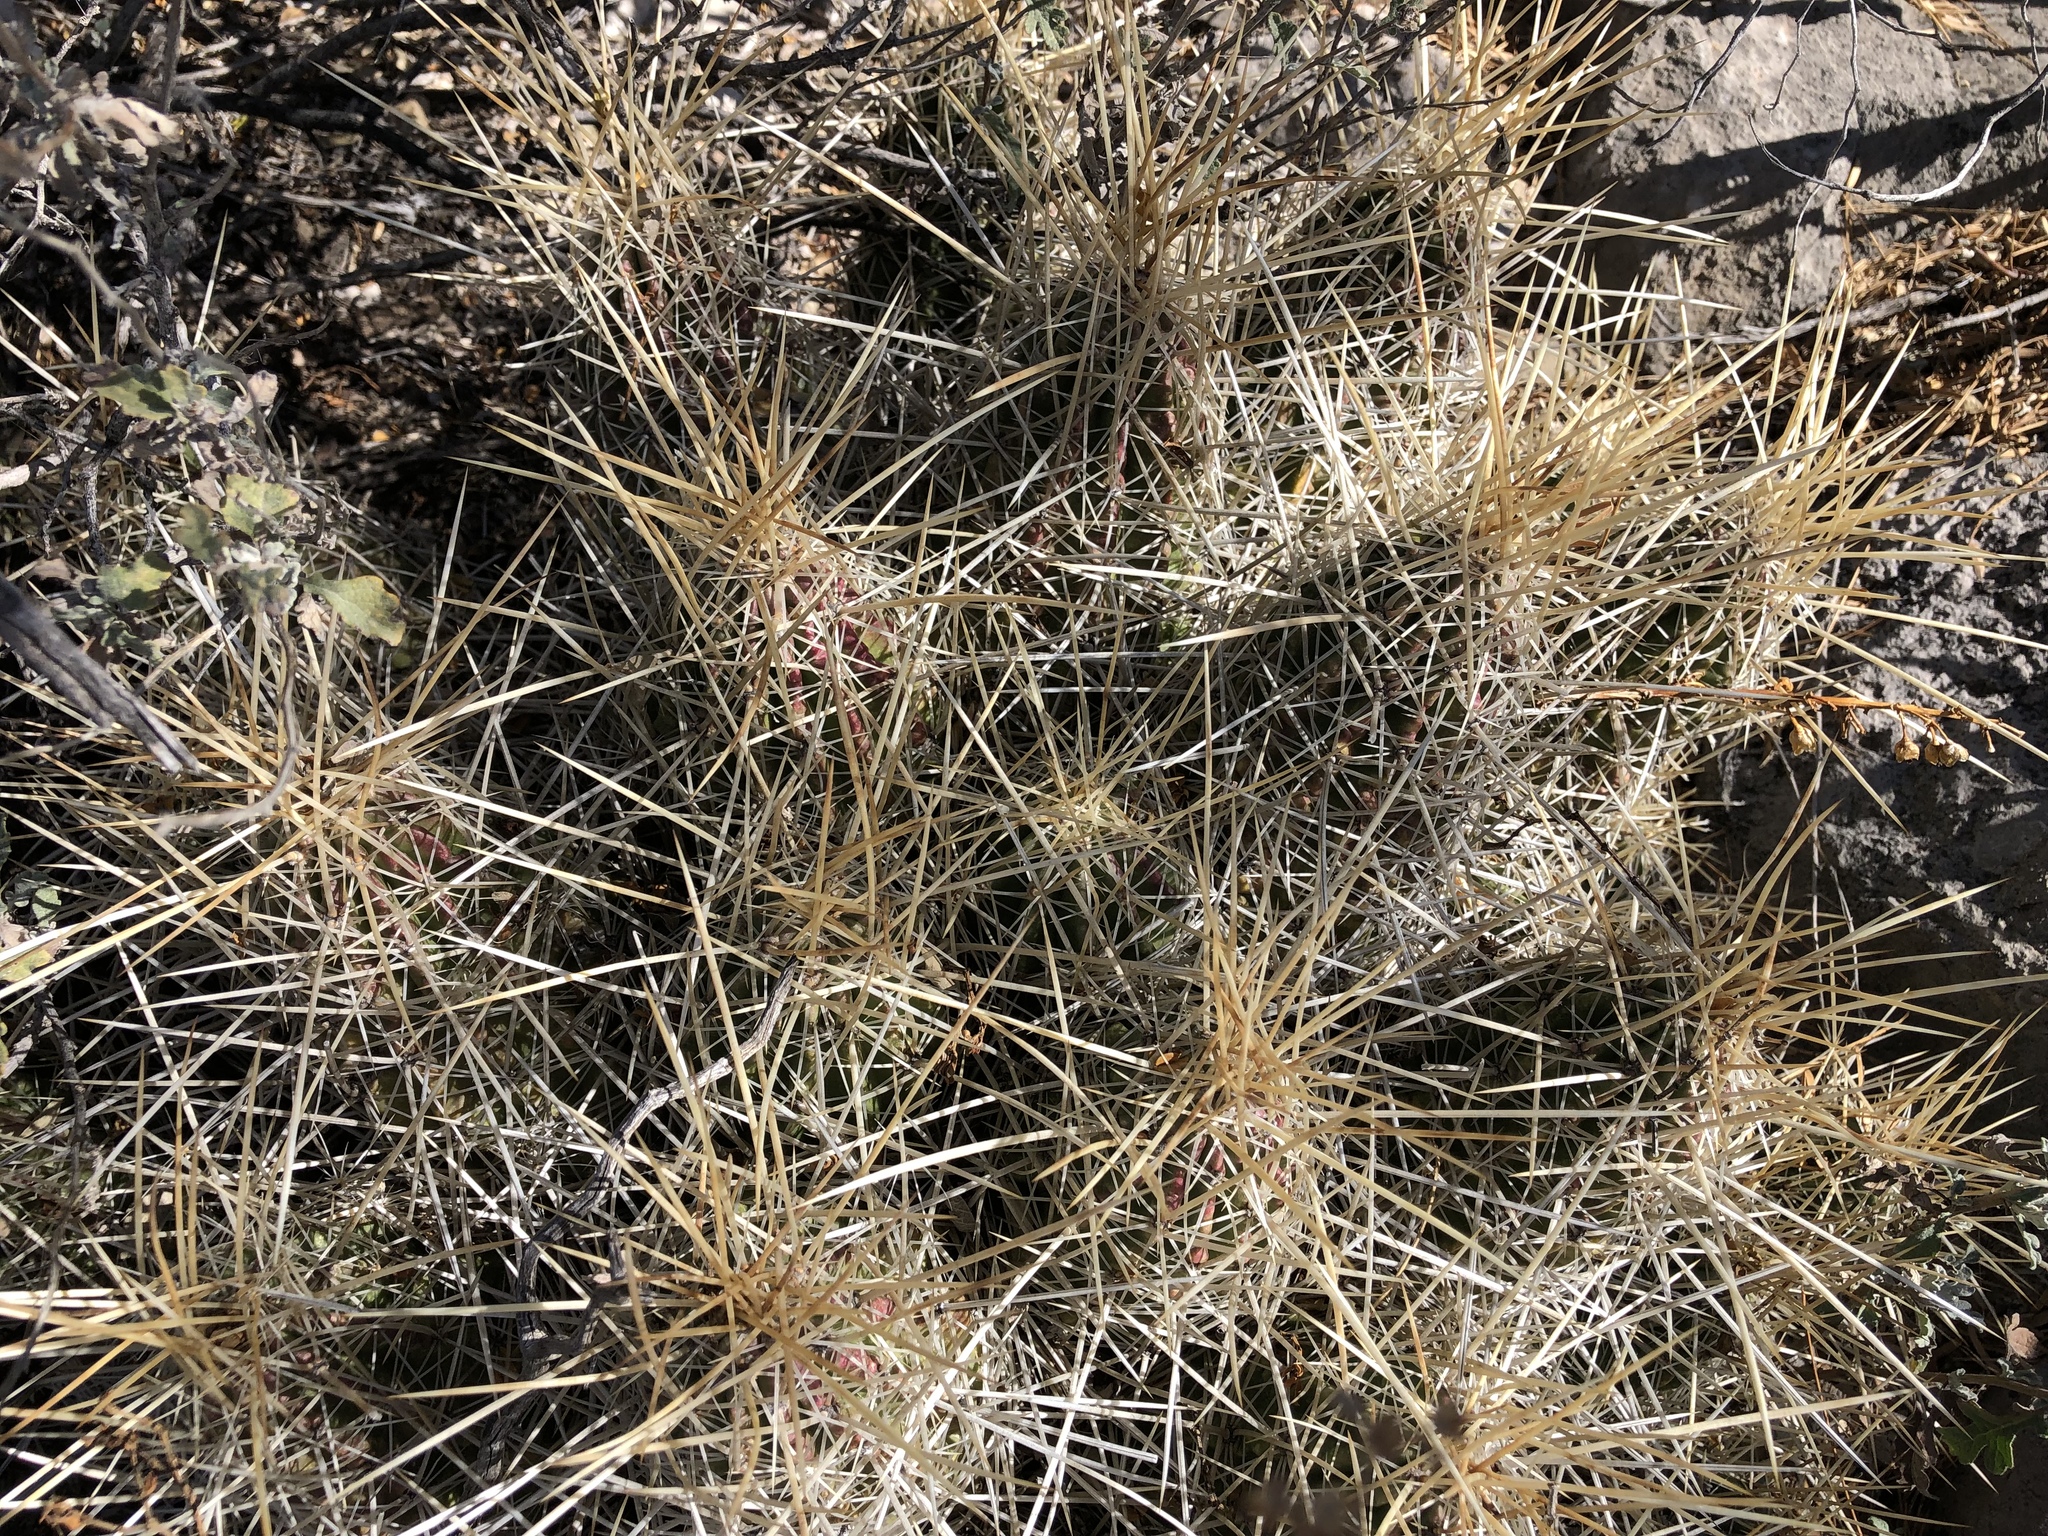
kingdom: Plantae
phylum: Tracheophyta
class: Magnoliopsida
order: Caryophyllales
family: Cactaceae
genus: Echinocereus
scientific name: Echinocereus stramineus
